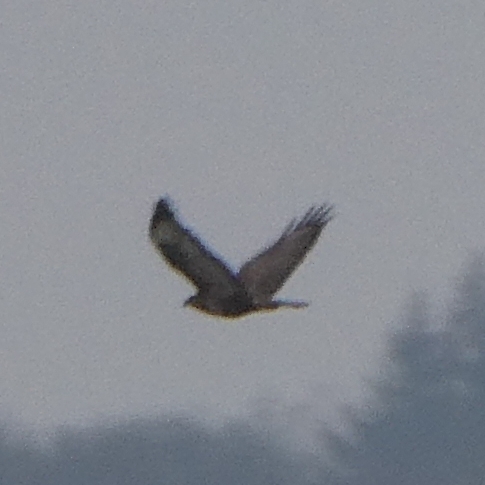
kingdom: Animalia
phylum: Chordata
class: Aves
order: Accipitriformes
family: Accipitridae
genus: Buteo
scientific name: Buteo buteo
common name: Common buzzard
